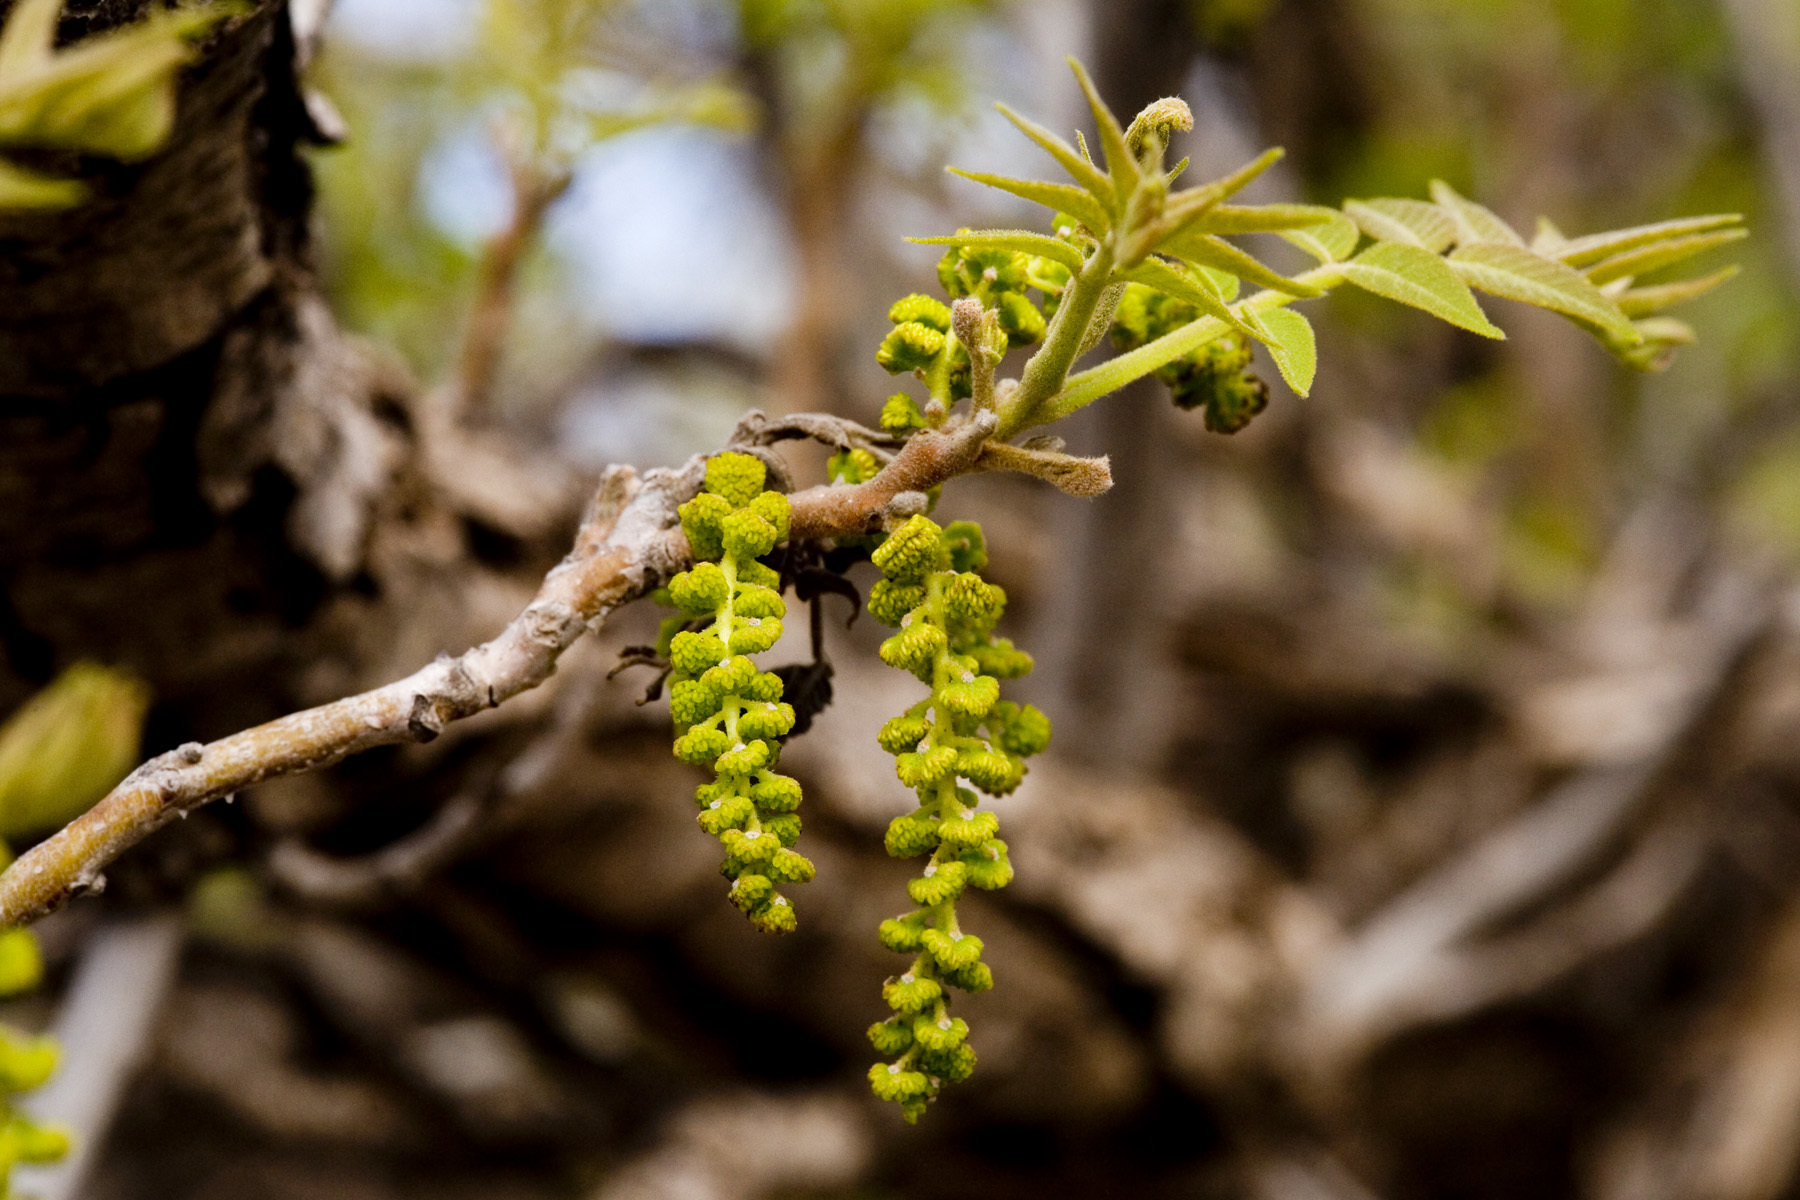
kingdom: Plantae
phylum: Tracheophyta
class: Magnoliopsida
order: Fagales
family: Juglandaceae
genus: Juglans
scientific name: Juglans microcarpa
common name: Texas walnut
